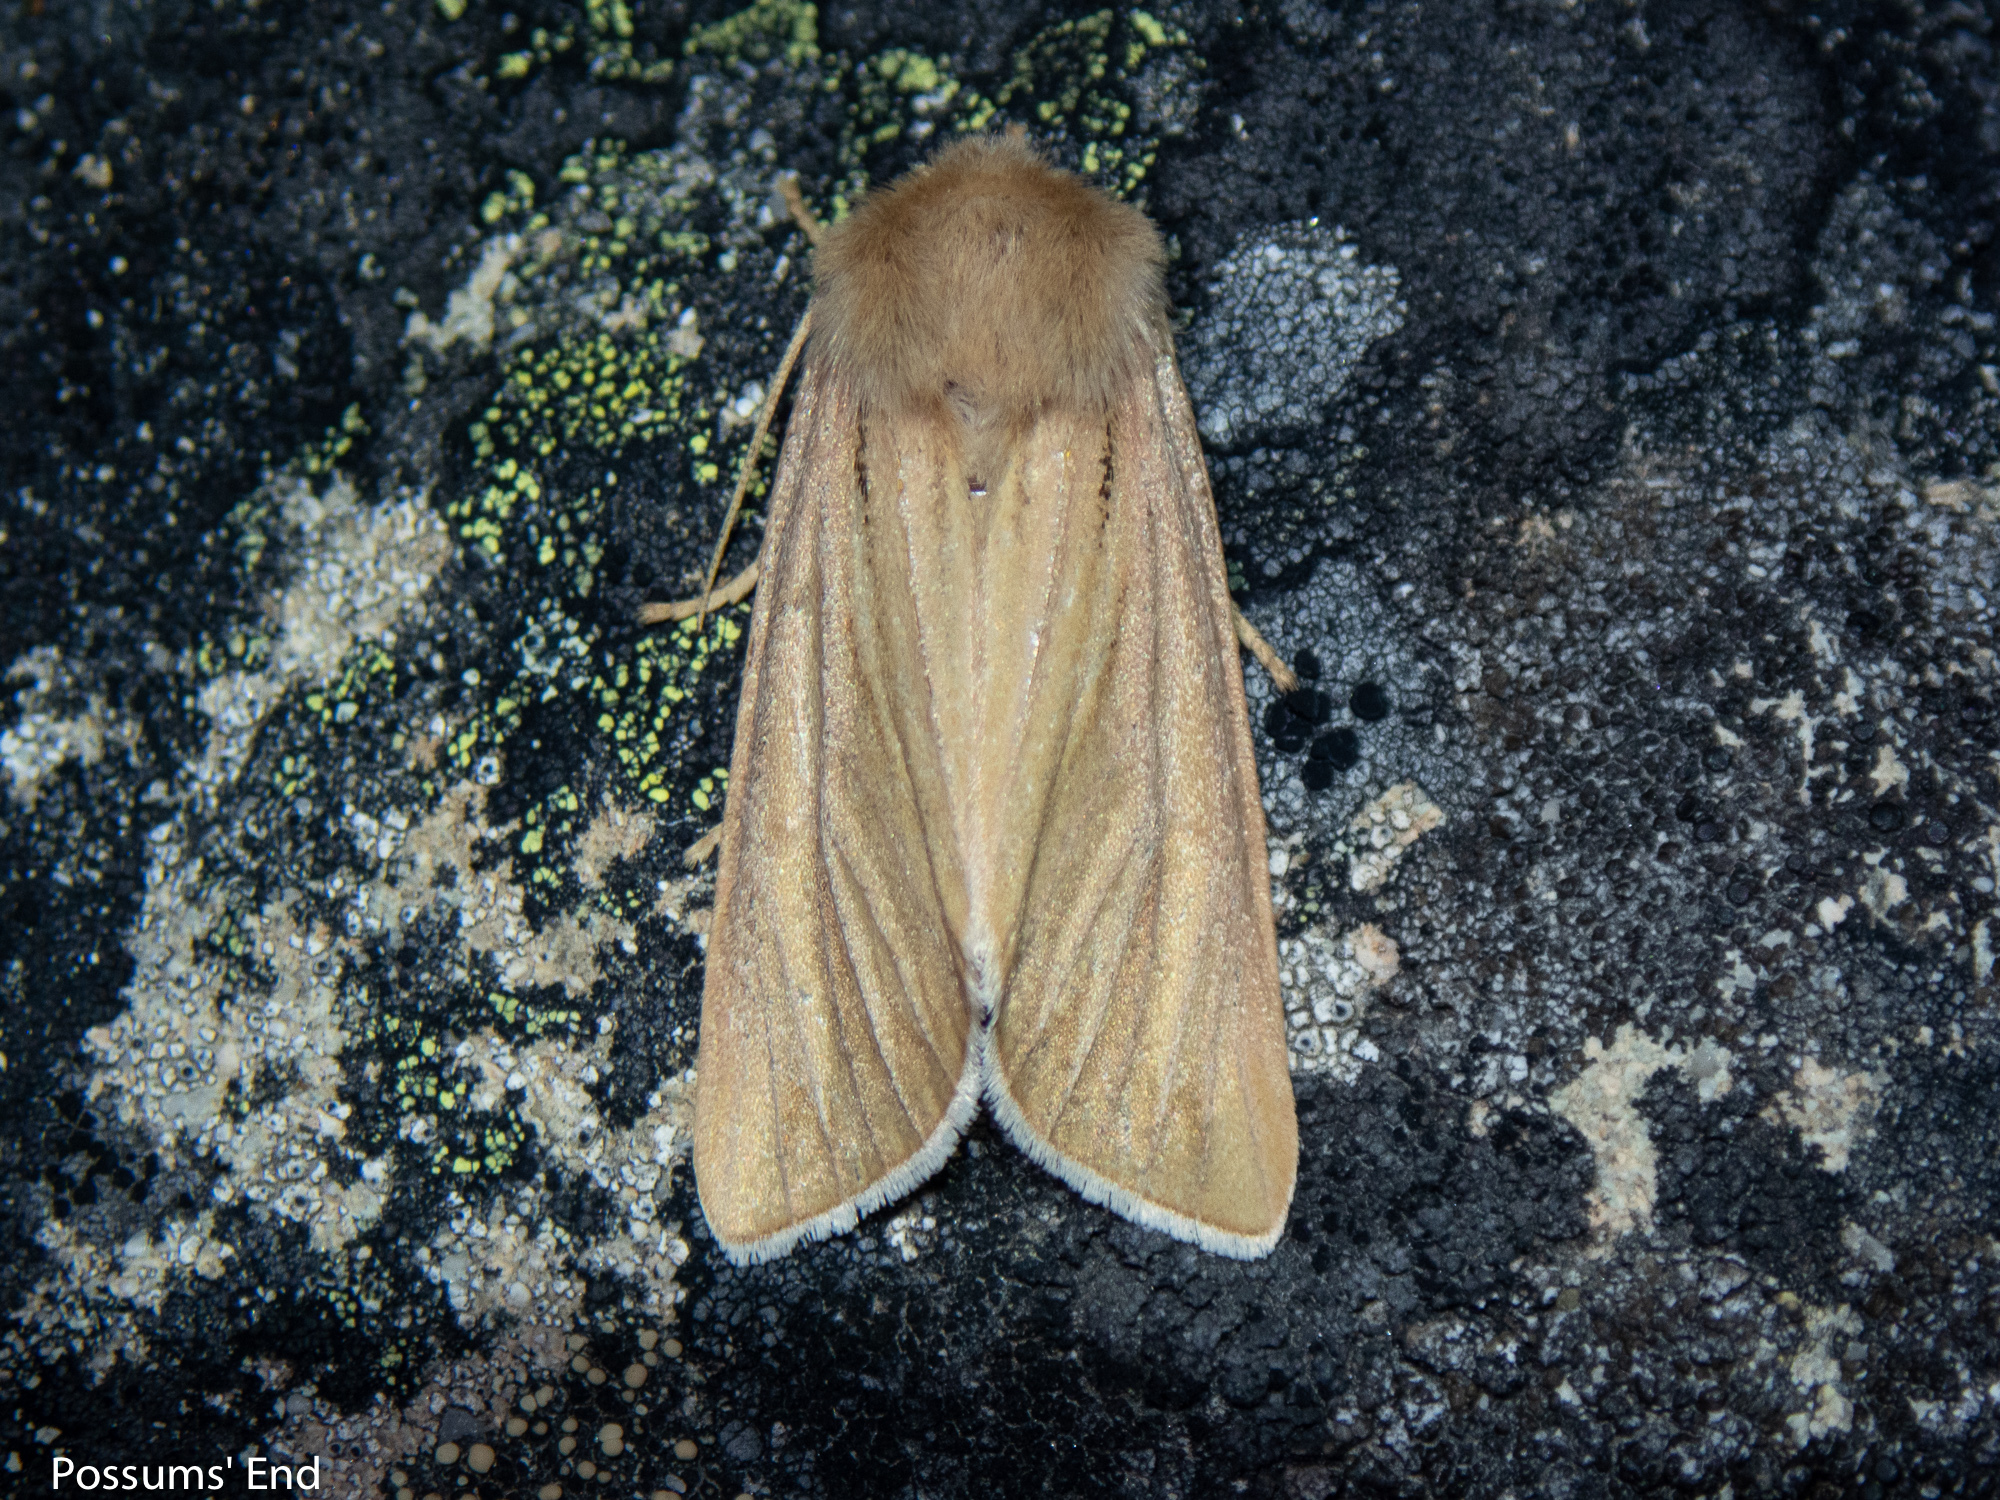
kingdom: Animalia
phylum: Arthropoda
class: Insecta
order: Lepidoptera
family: Noctuidae
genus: Ichneutica
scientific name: Ichneutica caraunias
